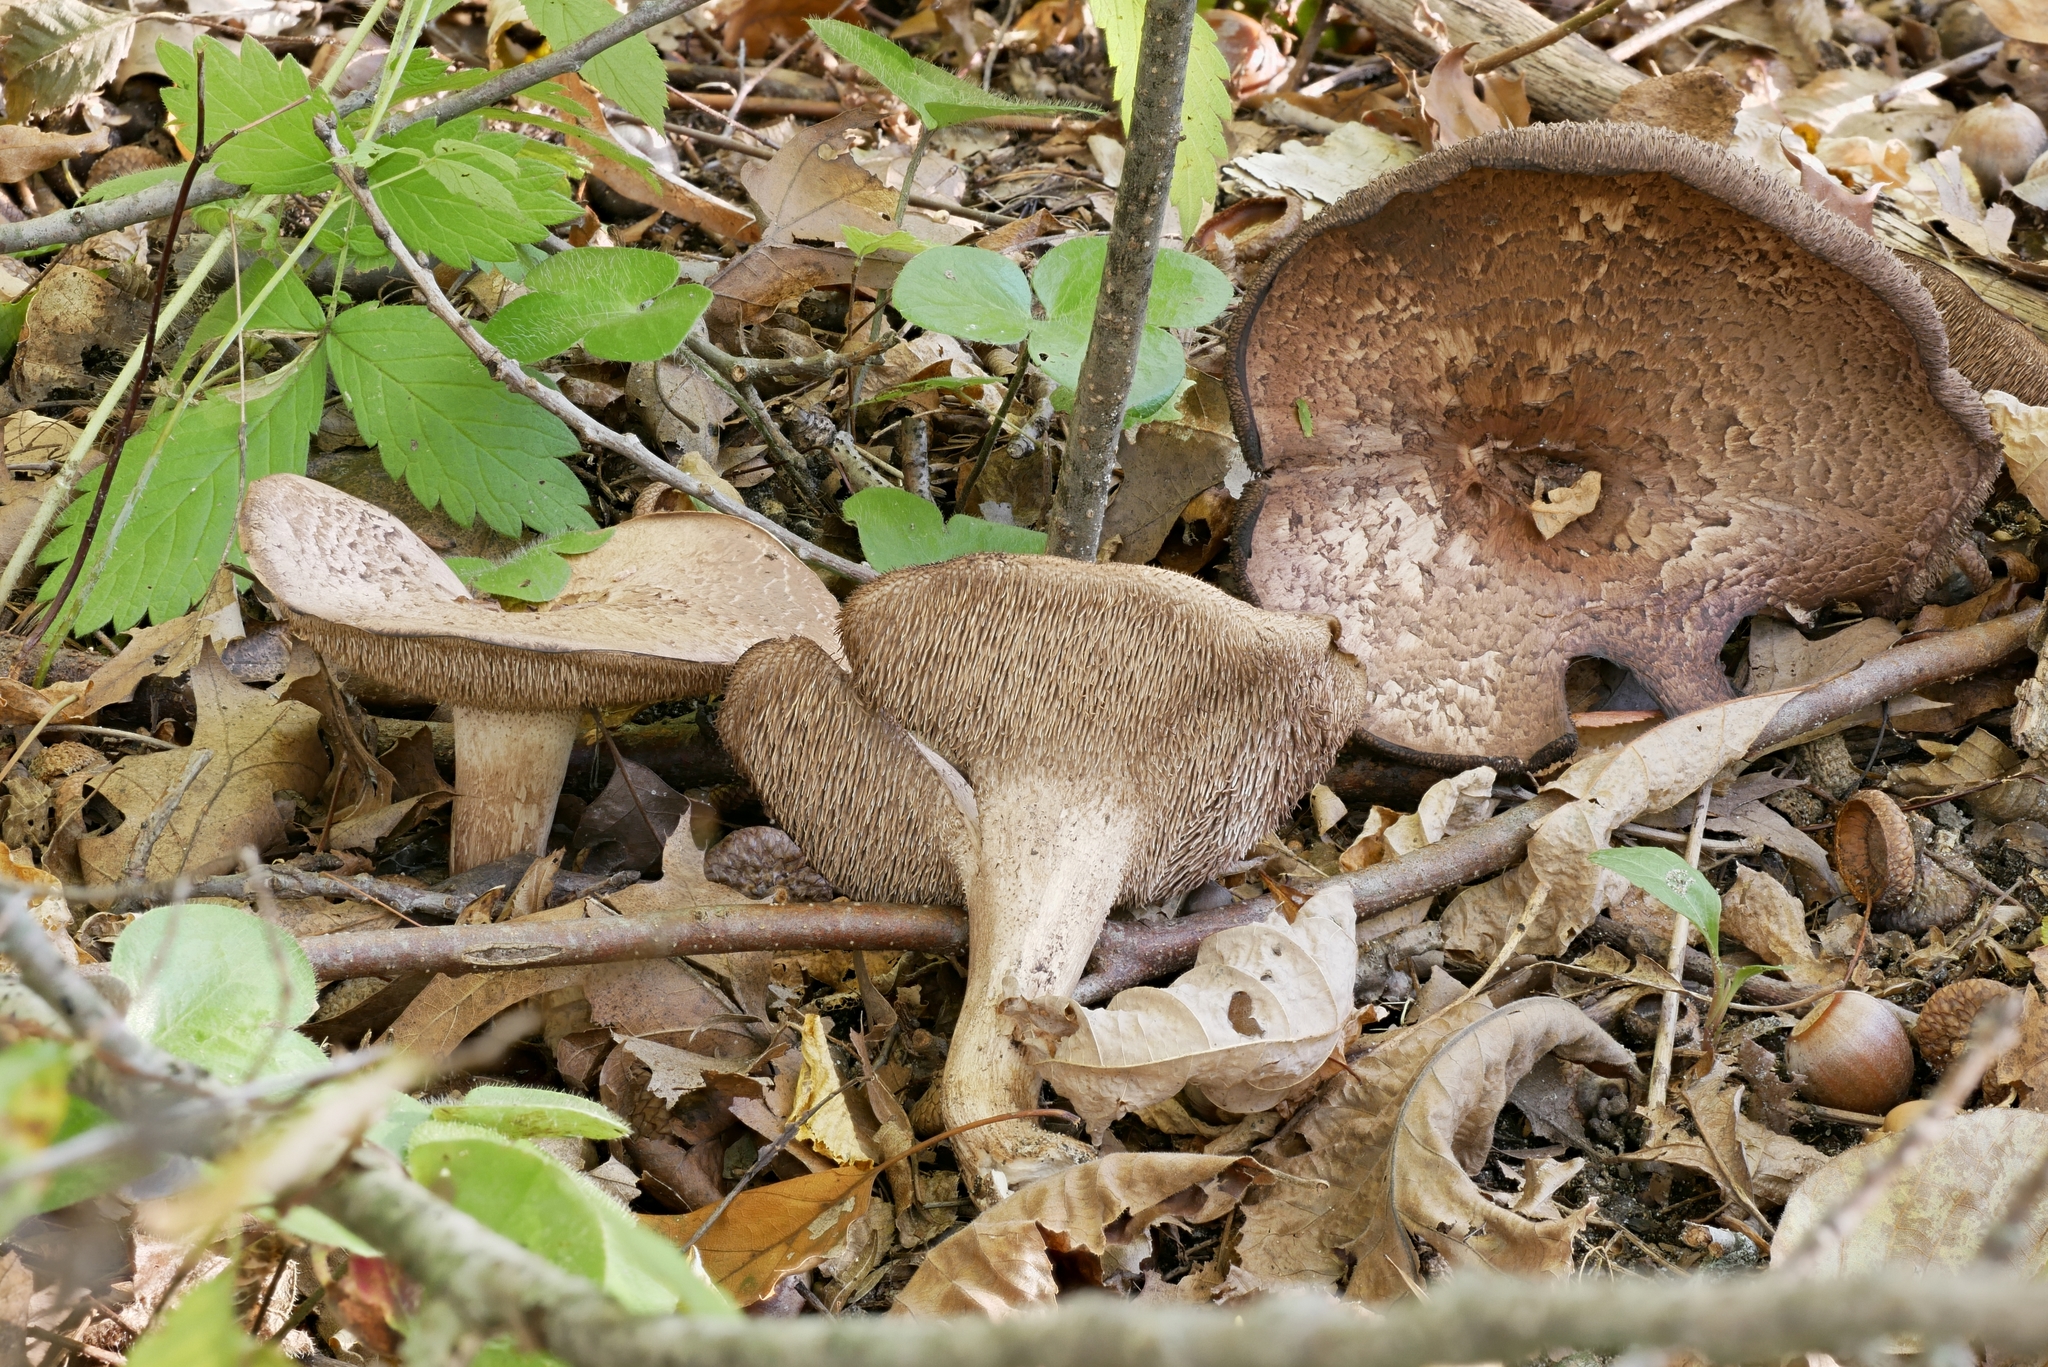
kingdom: Fungi
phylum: Basidiomycota
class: Agaricomycetes
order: Thelephorales
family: Bankeraceae
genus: Sarcodon
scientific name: Sarcodon quercinofibulatus
